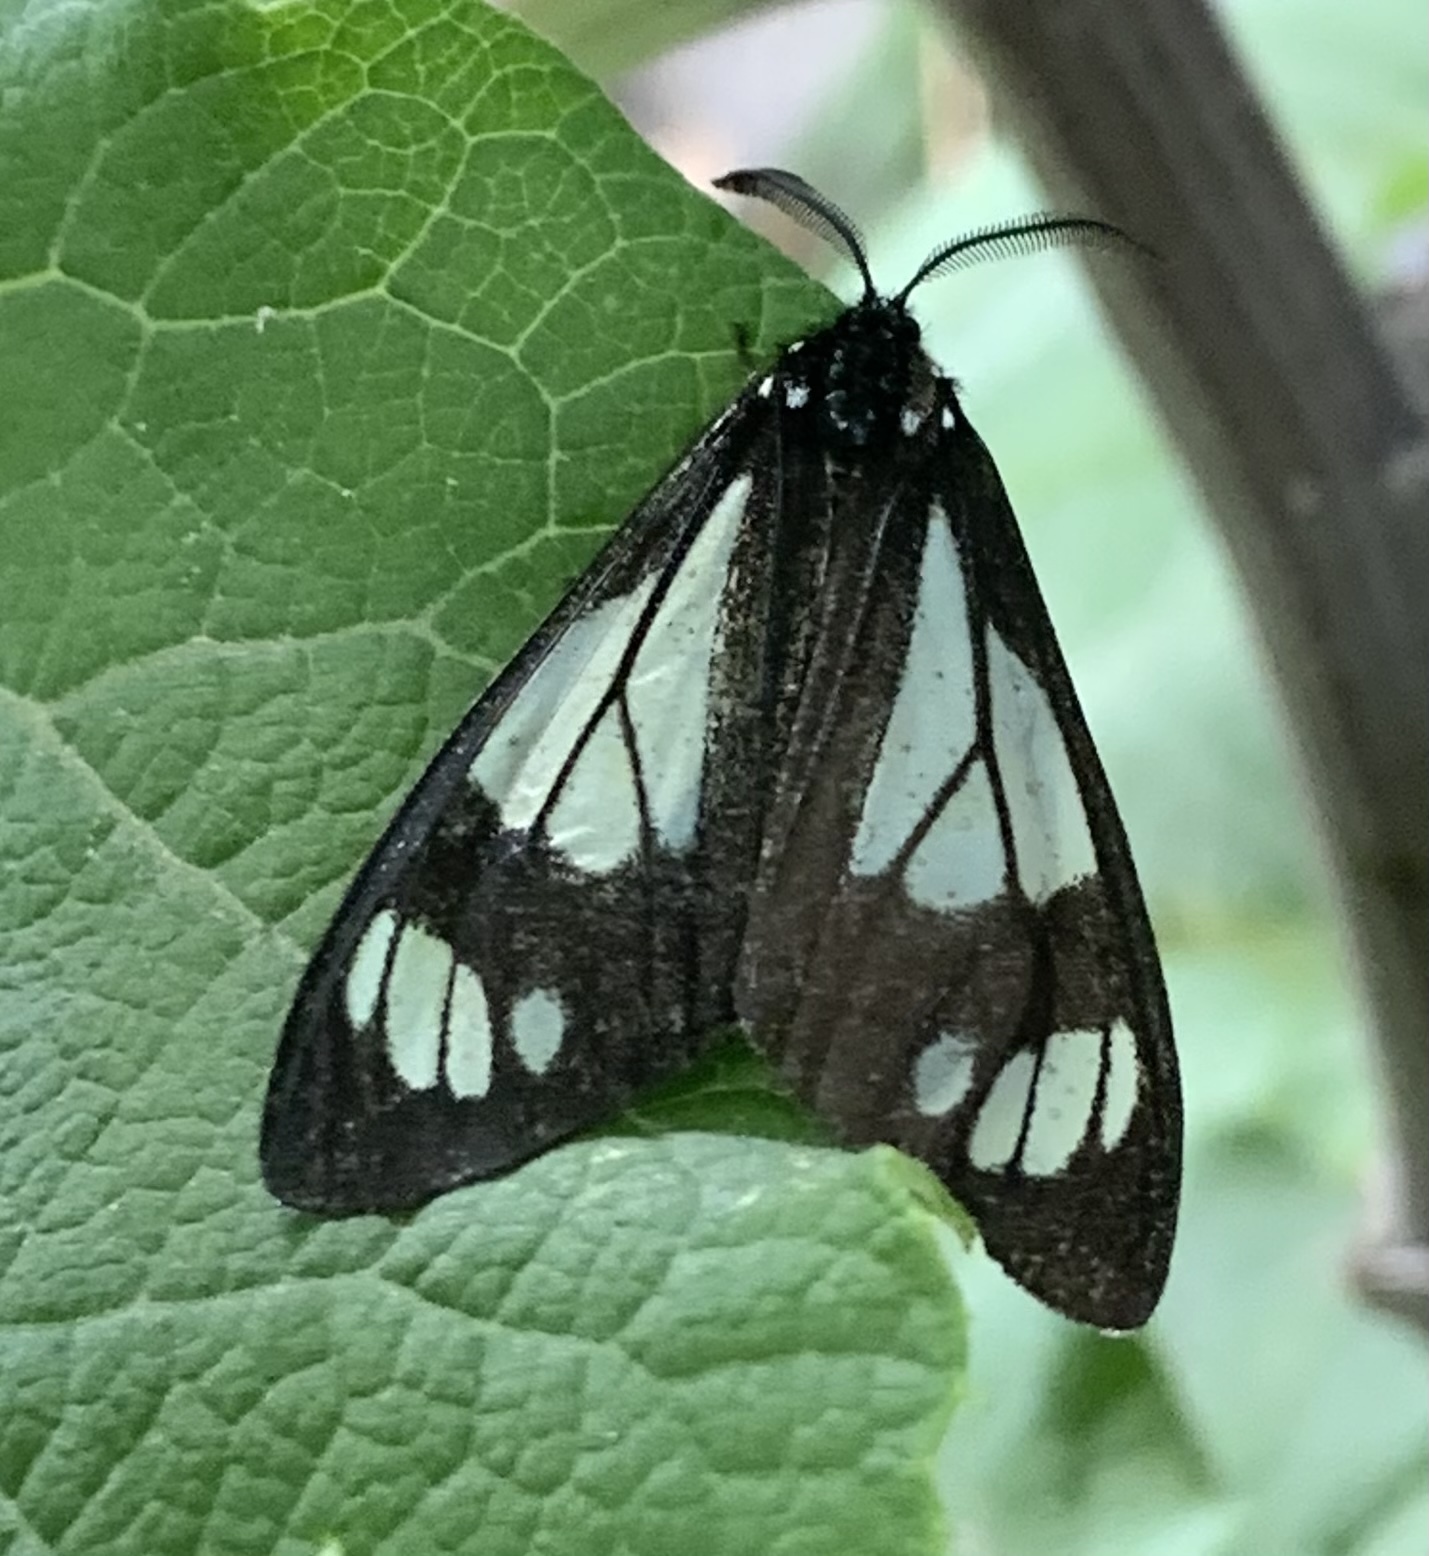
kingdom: Animalia
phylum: Arthropoda
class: Insecta
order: Lepidoptera
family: Erebidae
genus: Gnophaela
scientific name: Gnophaela vermiculata
